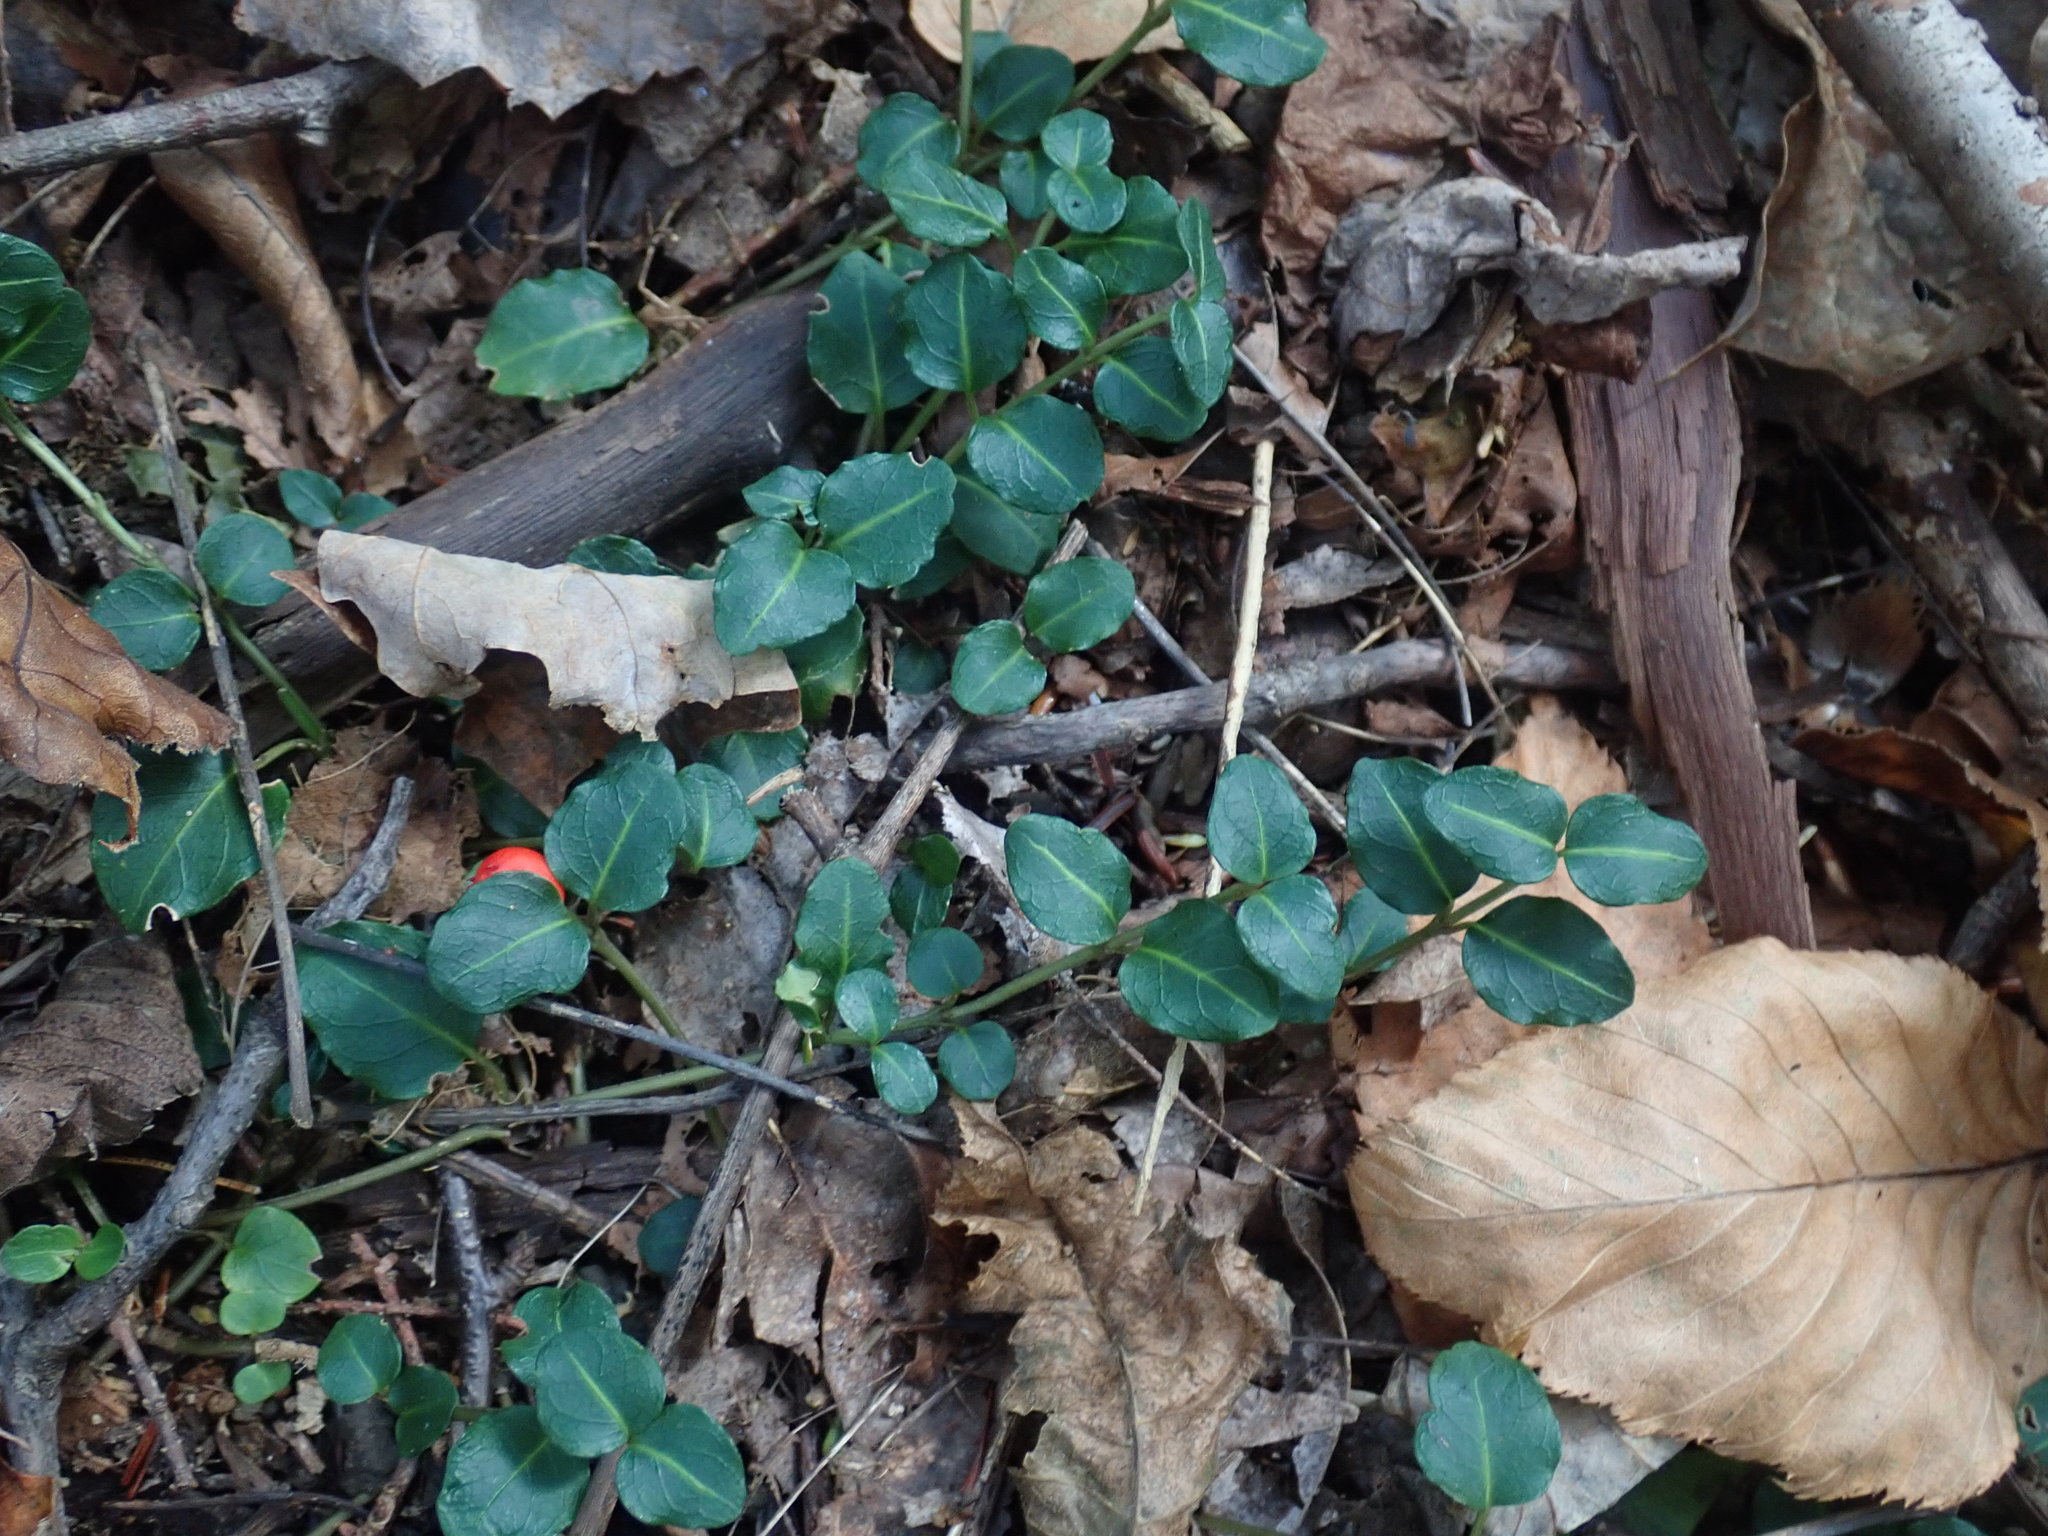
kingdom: Plantae
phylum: Tracheophyta
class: Magnoliopsida
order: Gentianales
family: Rubiaceae
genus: Mitchella
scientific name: Mitchella repens
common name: Partridge-berry
